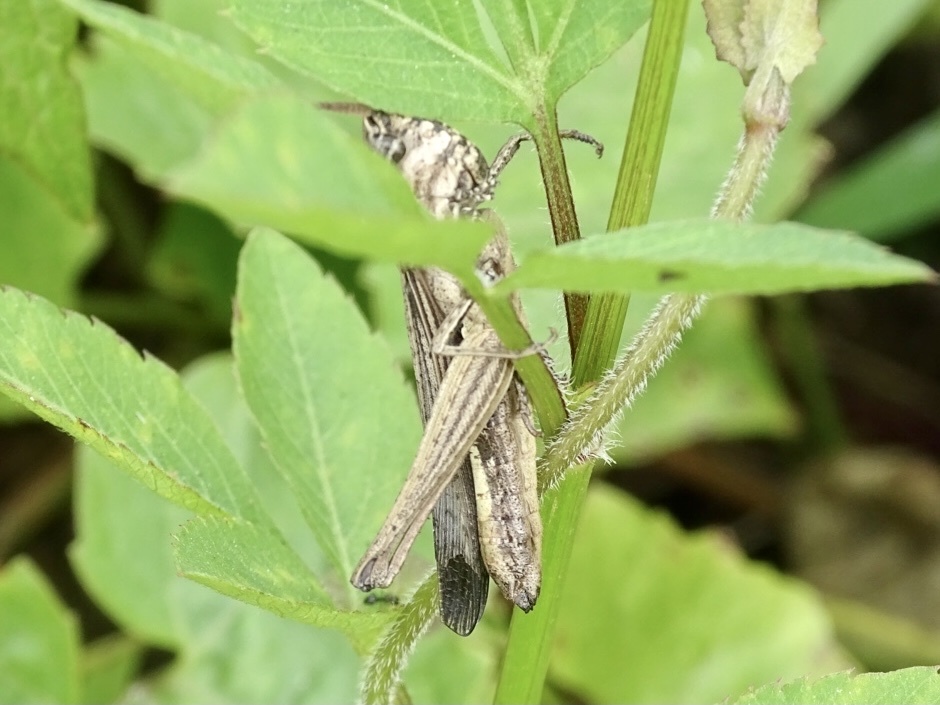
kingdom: Animalia
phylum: Arthropoda
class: Insecta
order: Orthoptera
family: Acrididae
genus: Phlaeoba
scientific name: Phlaeoba infumata
